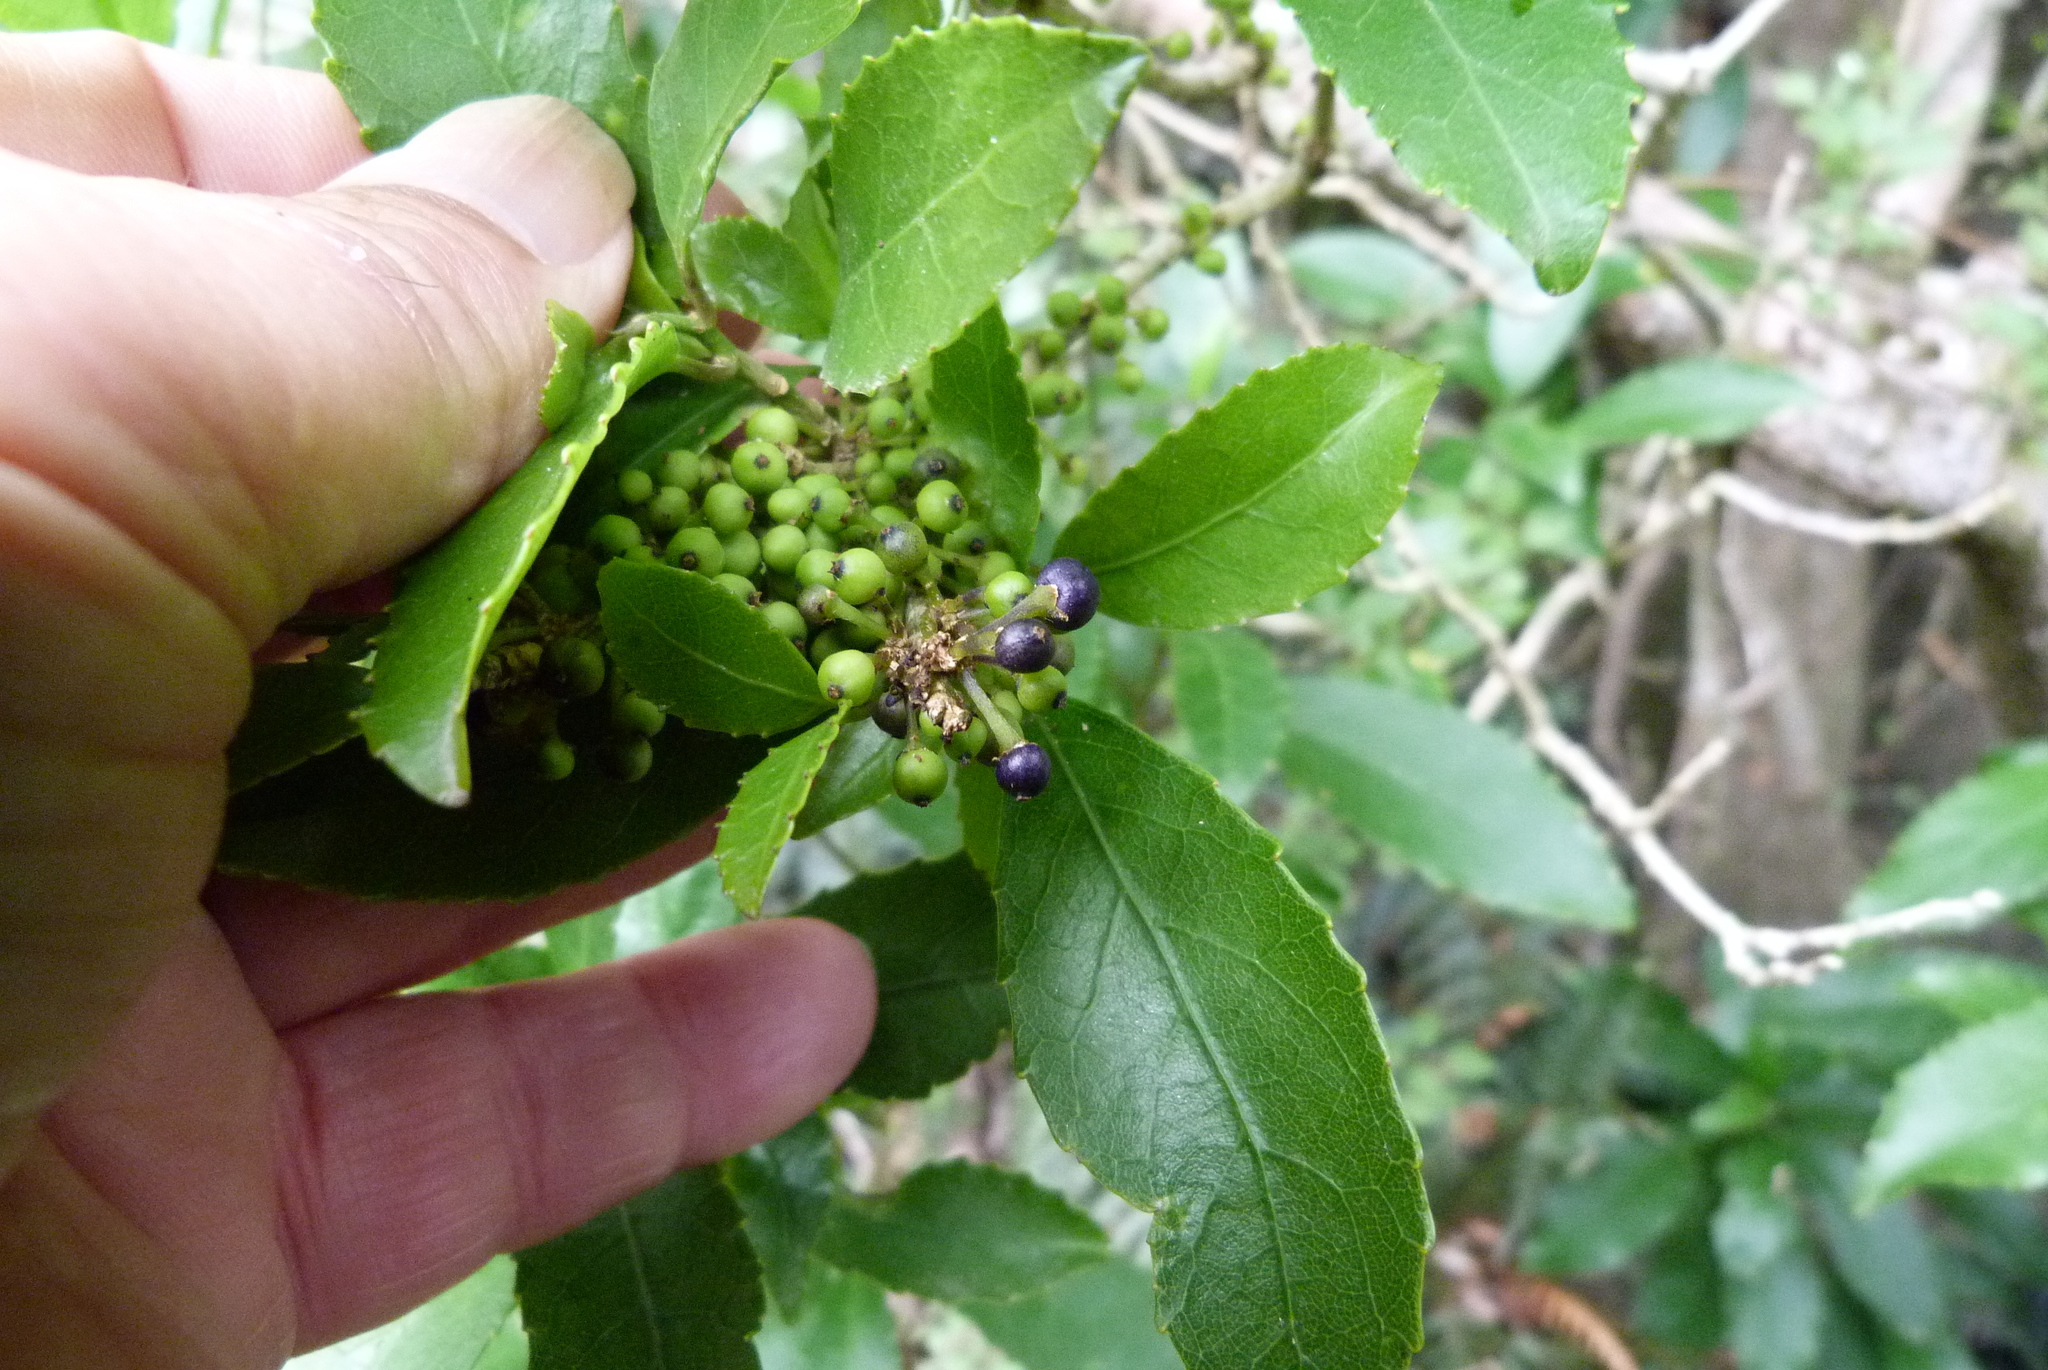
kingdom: Plantae
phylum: Tracheophyta
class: Magnoliopsida
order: Malpighiales
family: Violaceae
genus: Melicytus
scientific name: Melicytus ramiflorus
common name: Mahoe
